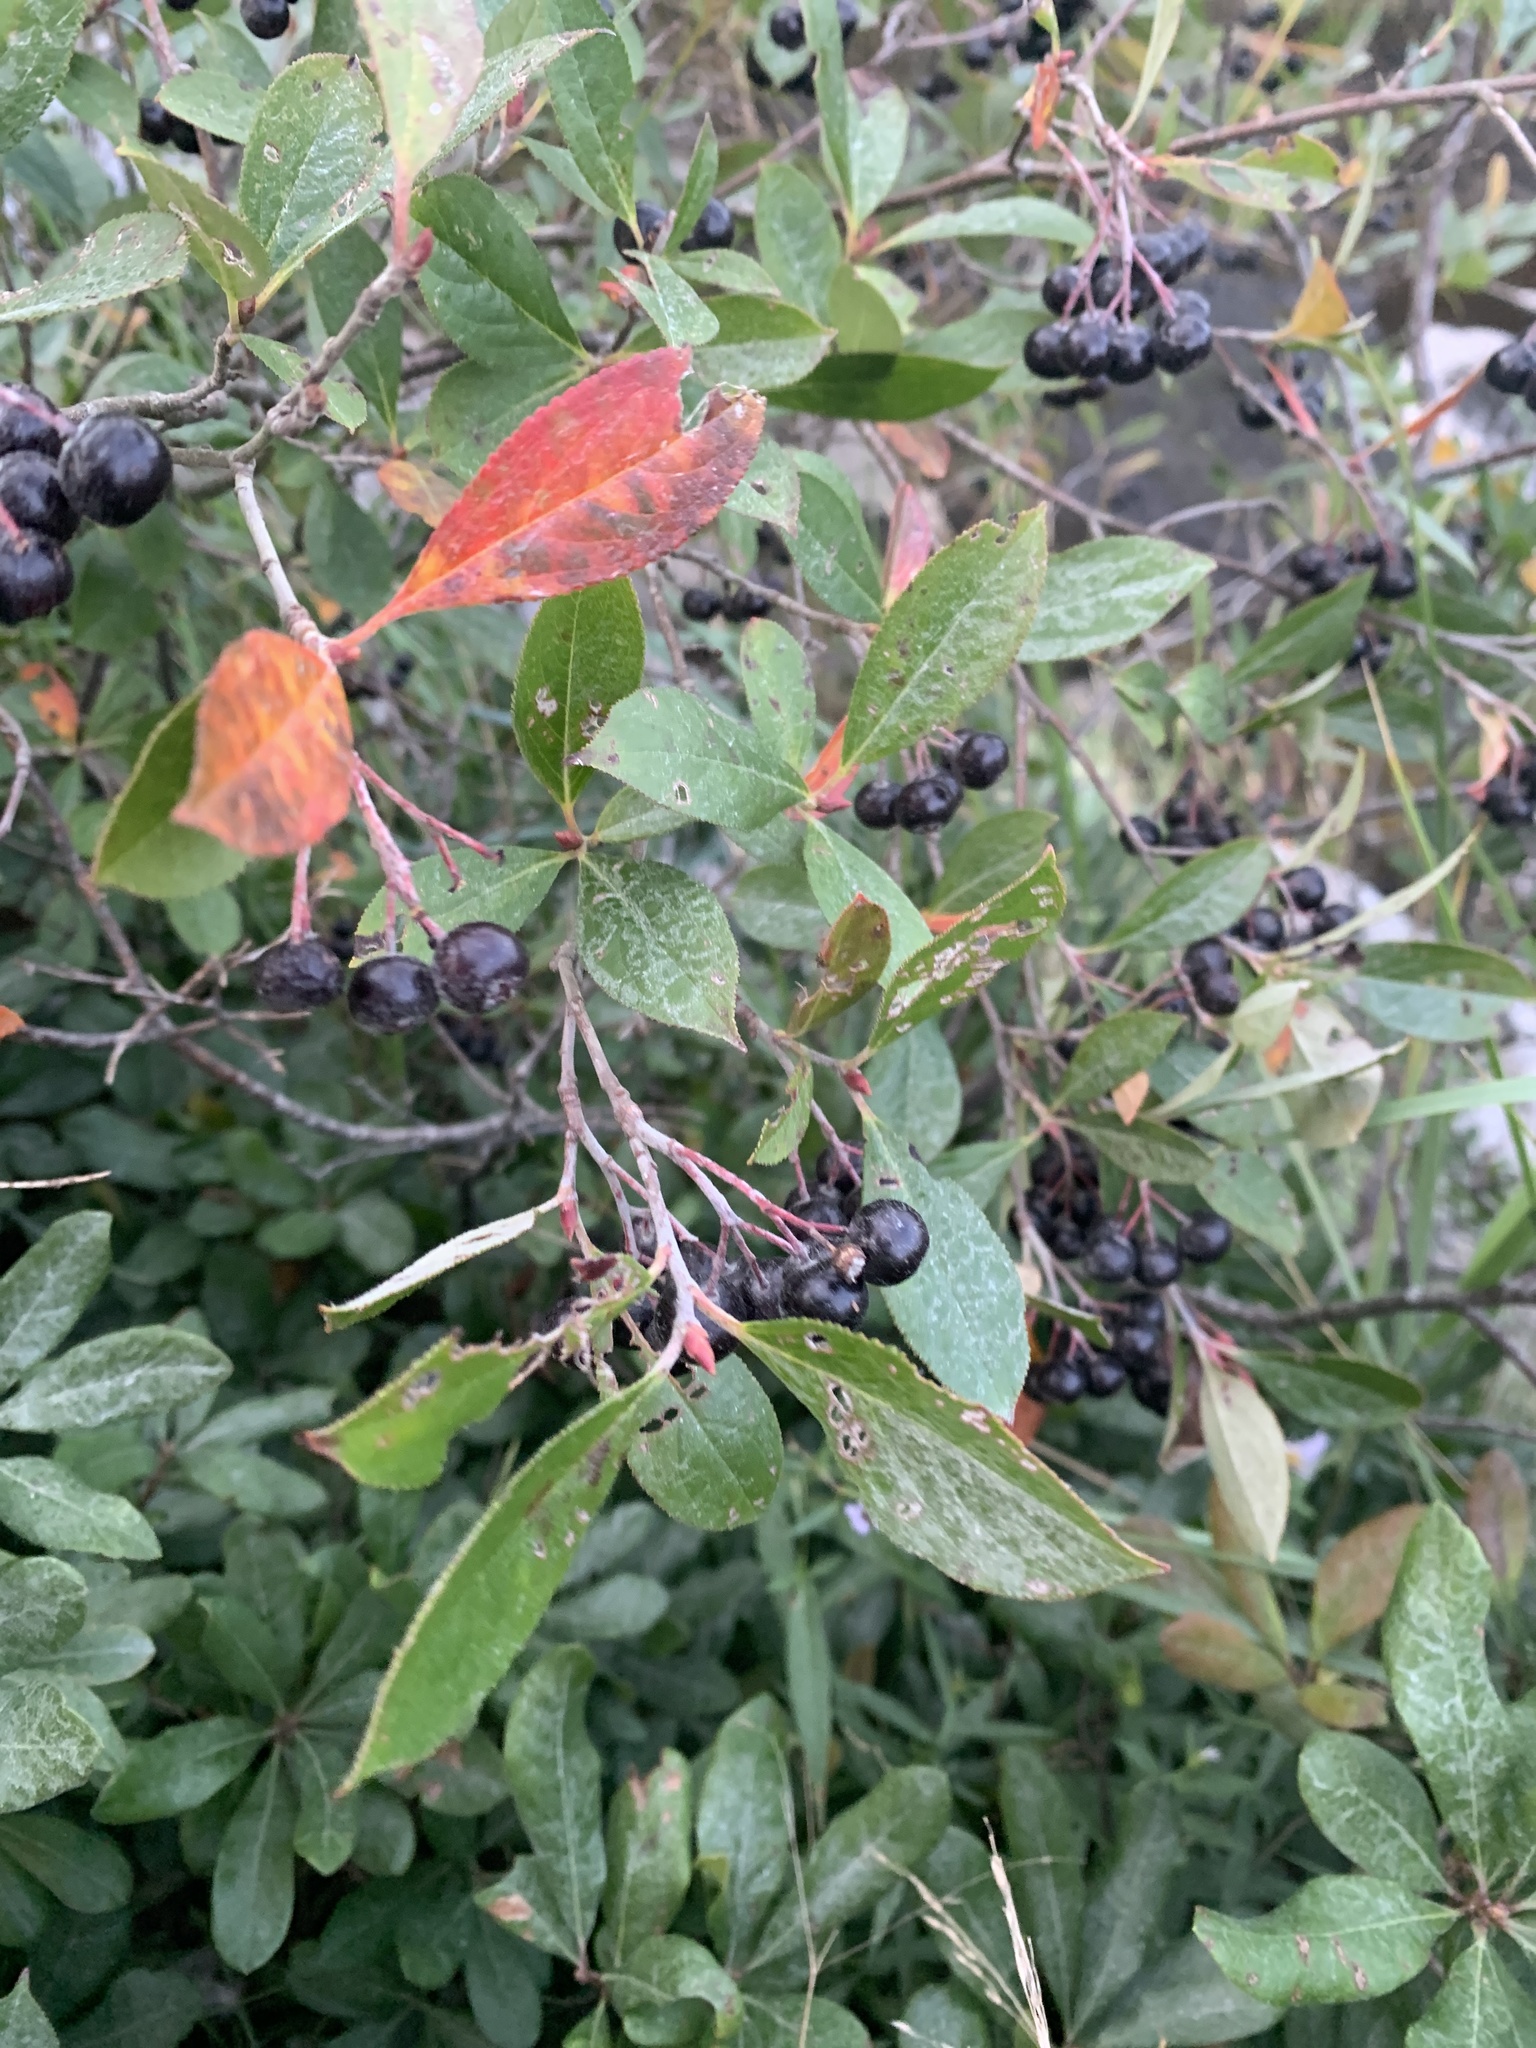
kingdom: Plantae
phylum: Tracheophyta
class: Magnoliopsida
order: Rosales
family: Rosaceae
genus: Aronia
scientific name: Aronia melanocarpa
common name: Black chokeberry
